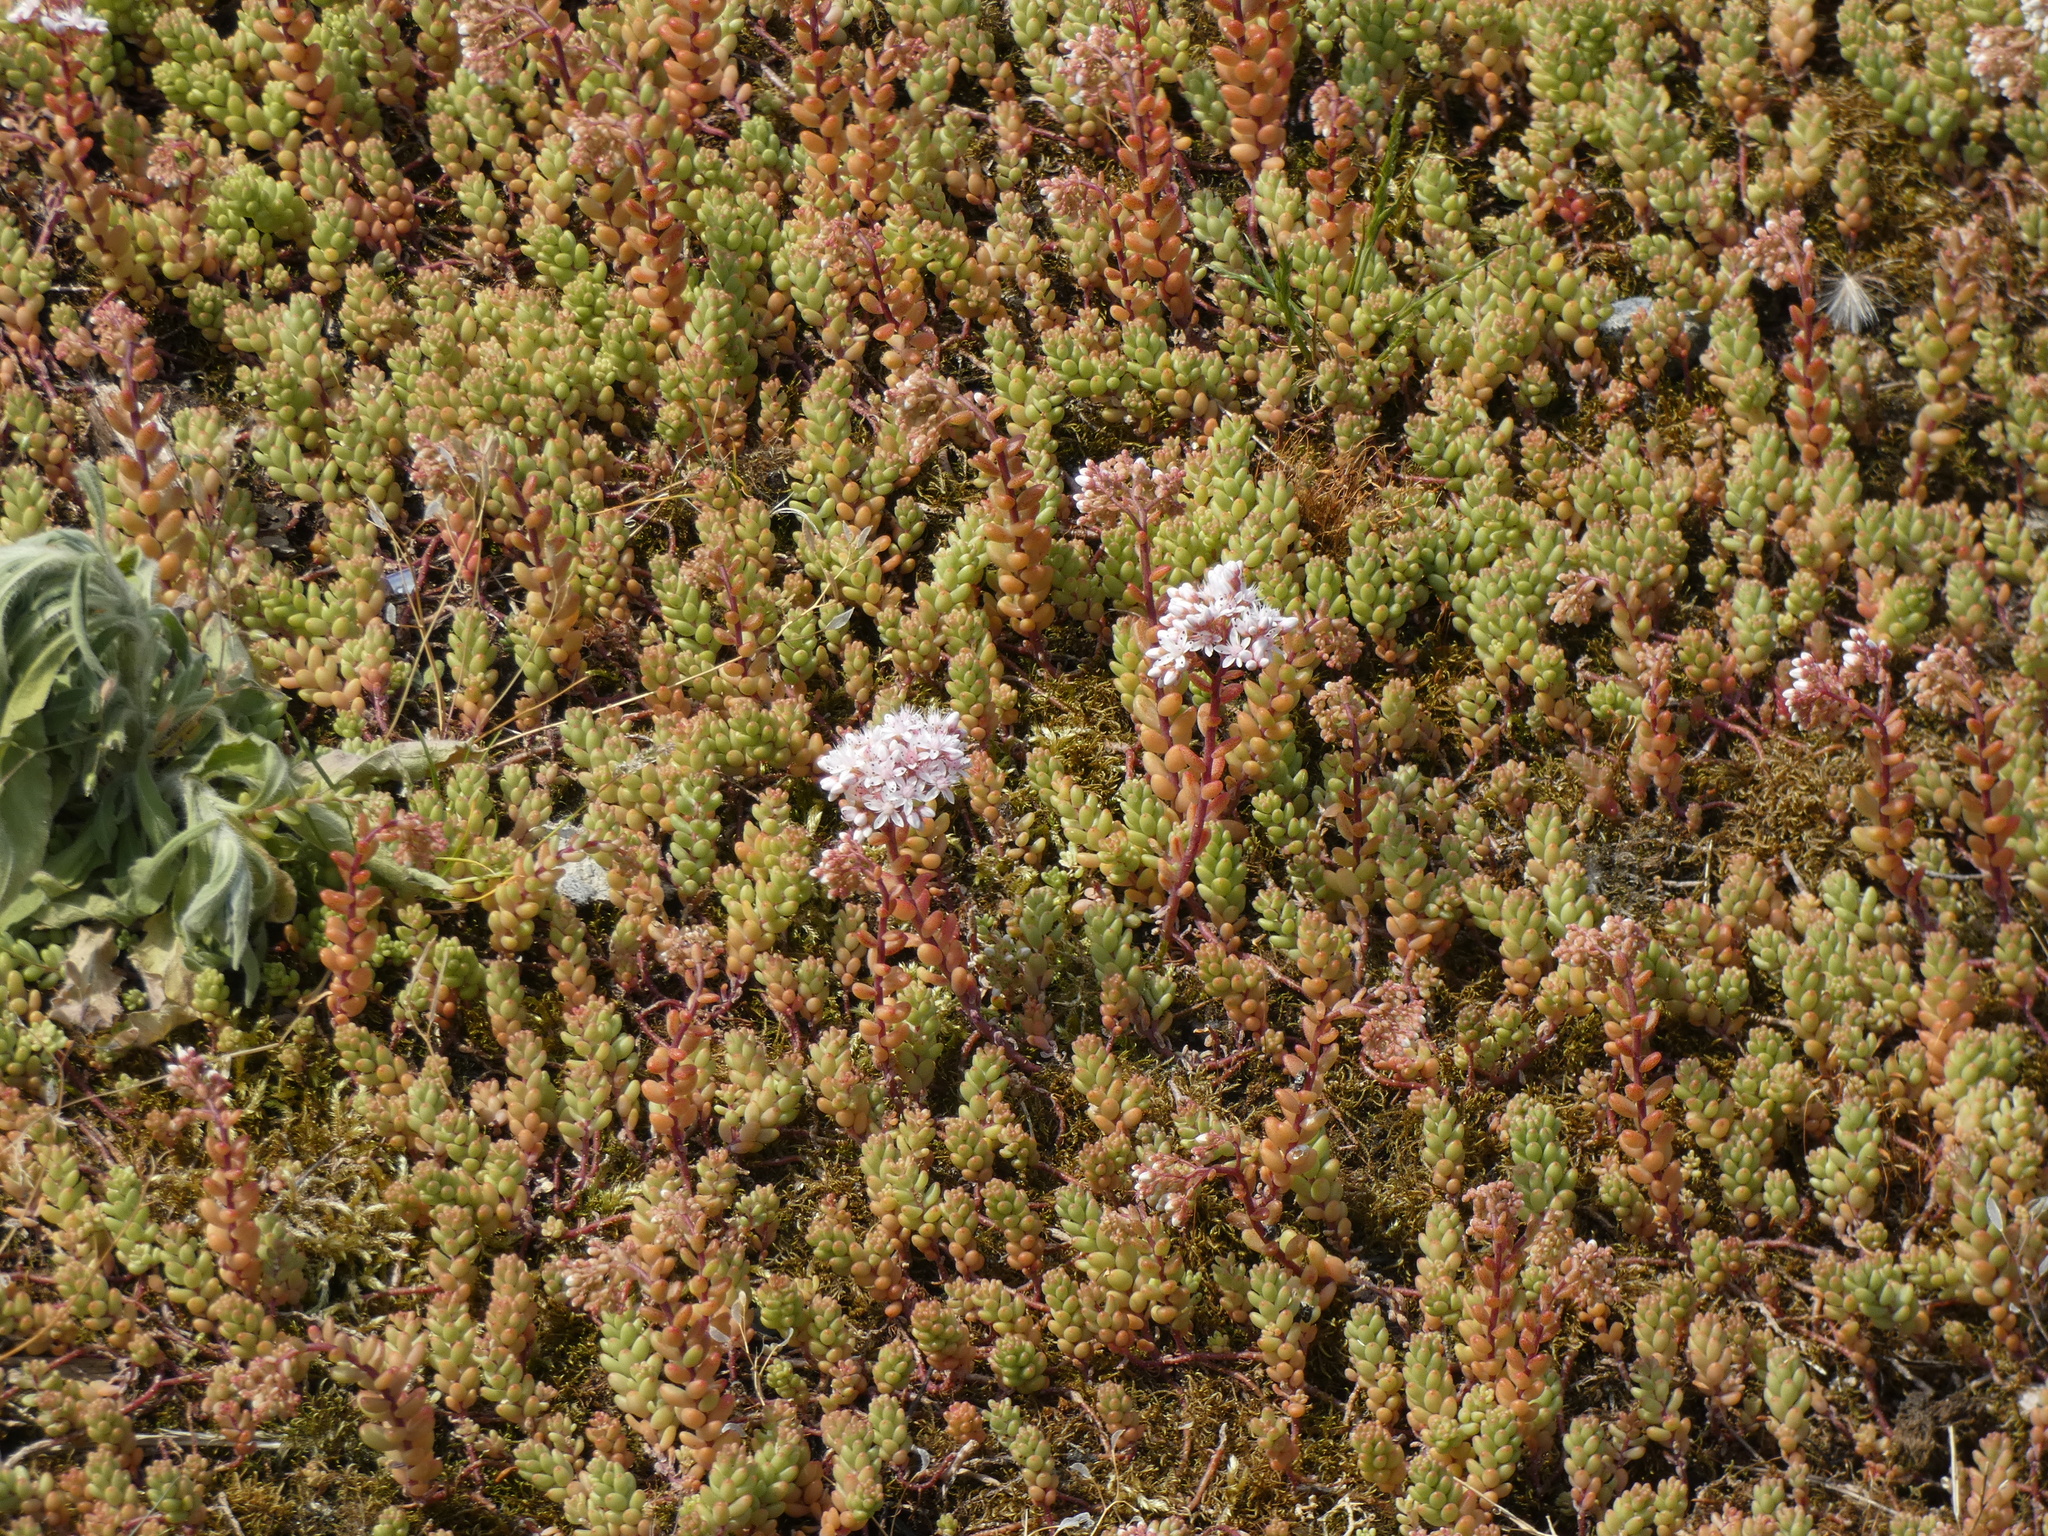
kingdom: Plantae
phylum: Tracheophyta
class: Magnoliopsida
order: Saxifragales
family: Crassulaceae
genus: Sedum
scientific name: Sedum album
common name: White stonecrop
